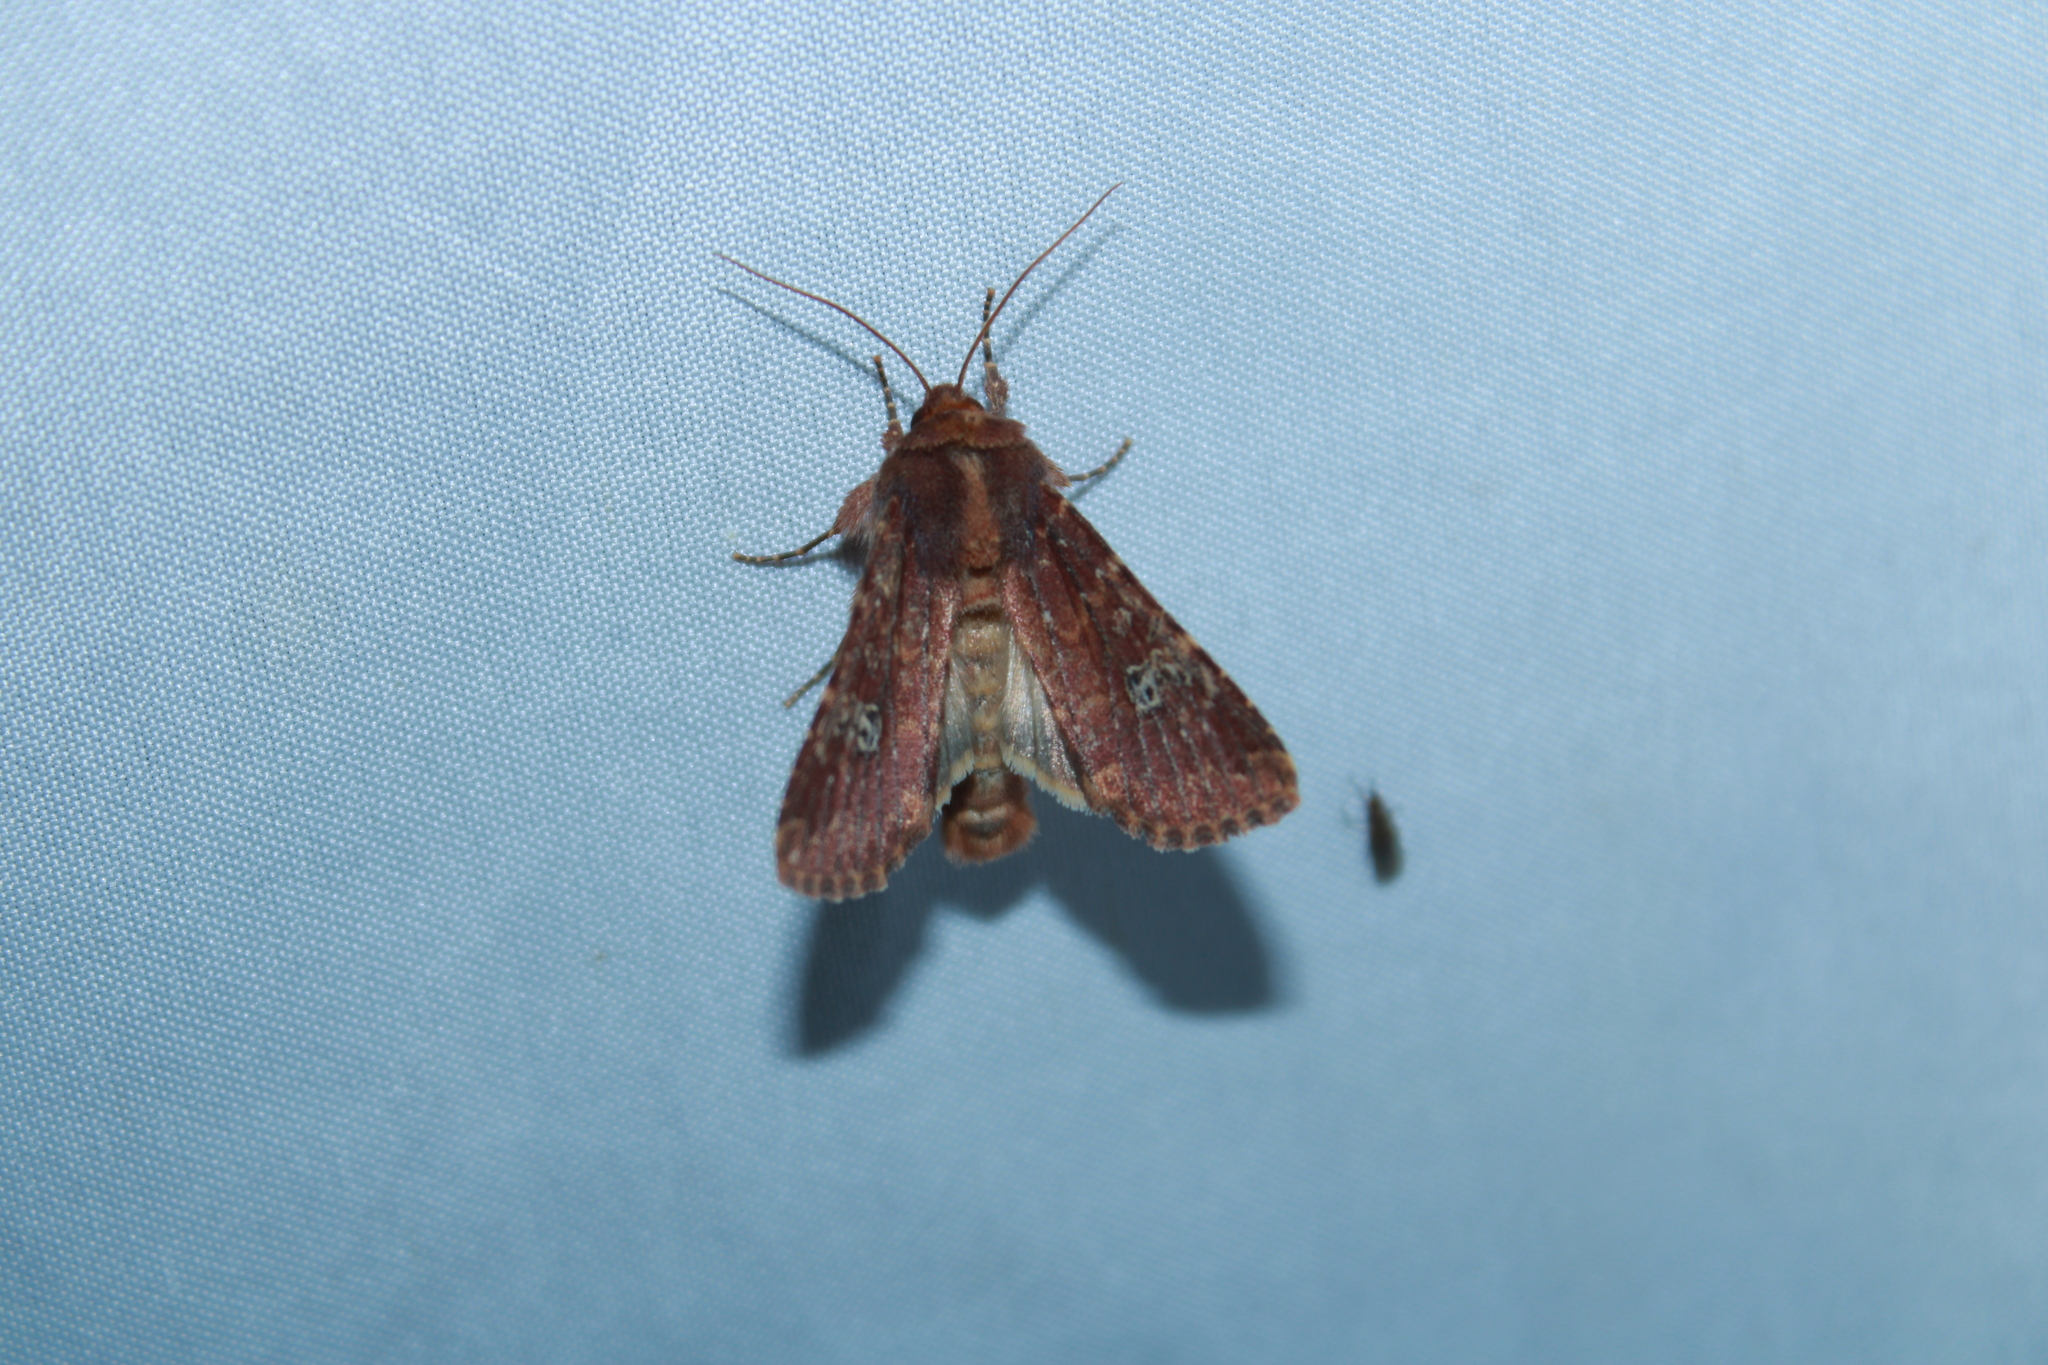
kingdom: Animalia
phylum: Arthropoda
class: Insecta
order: Lepidoptera
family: Noctuidae
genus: Sideridis
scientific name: Sideridis congermana
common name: German cousin moth
